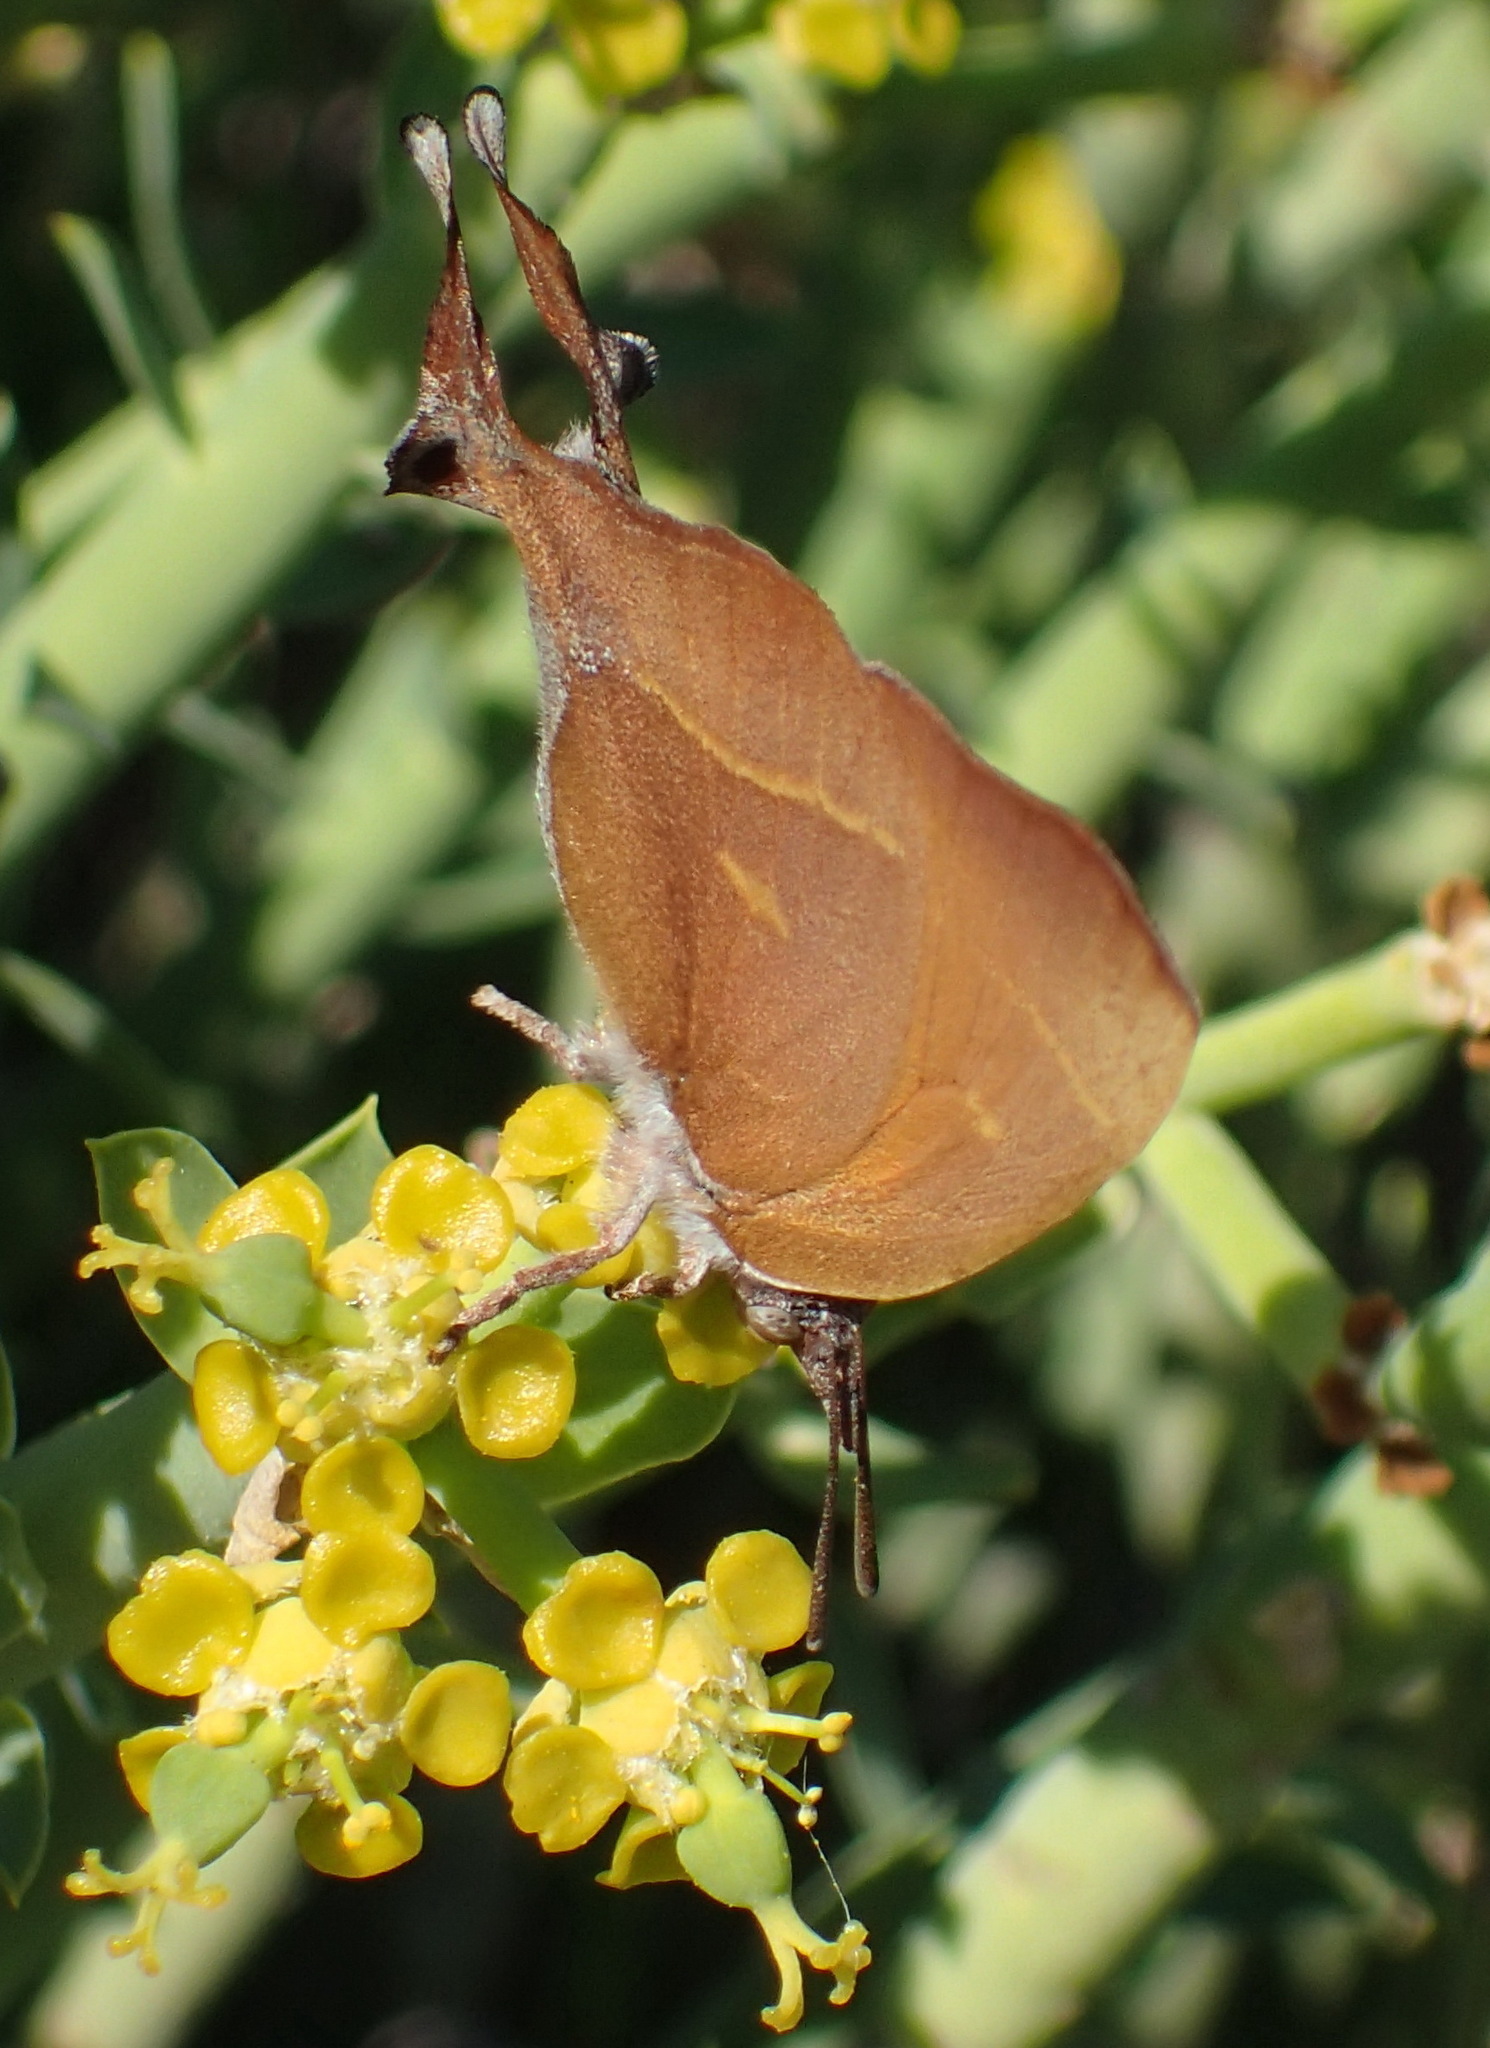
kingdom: Animalia
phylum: Arthropoda
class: Insecta
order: Lepidoptera
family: Lycaenidae
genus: Myrina
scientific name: Myrina silenus
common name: Amber fig-tree blue
